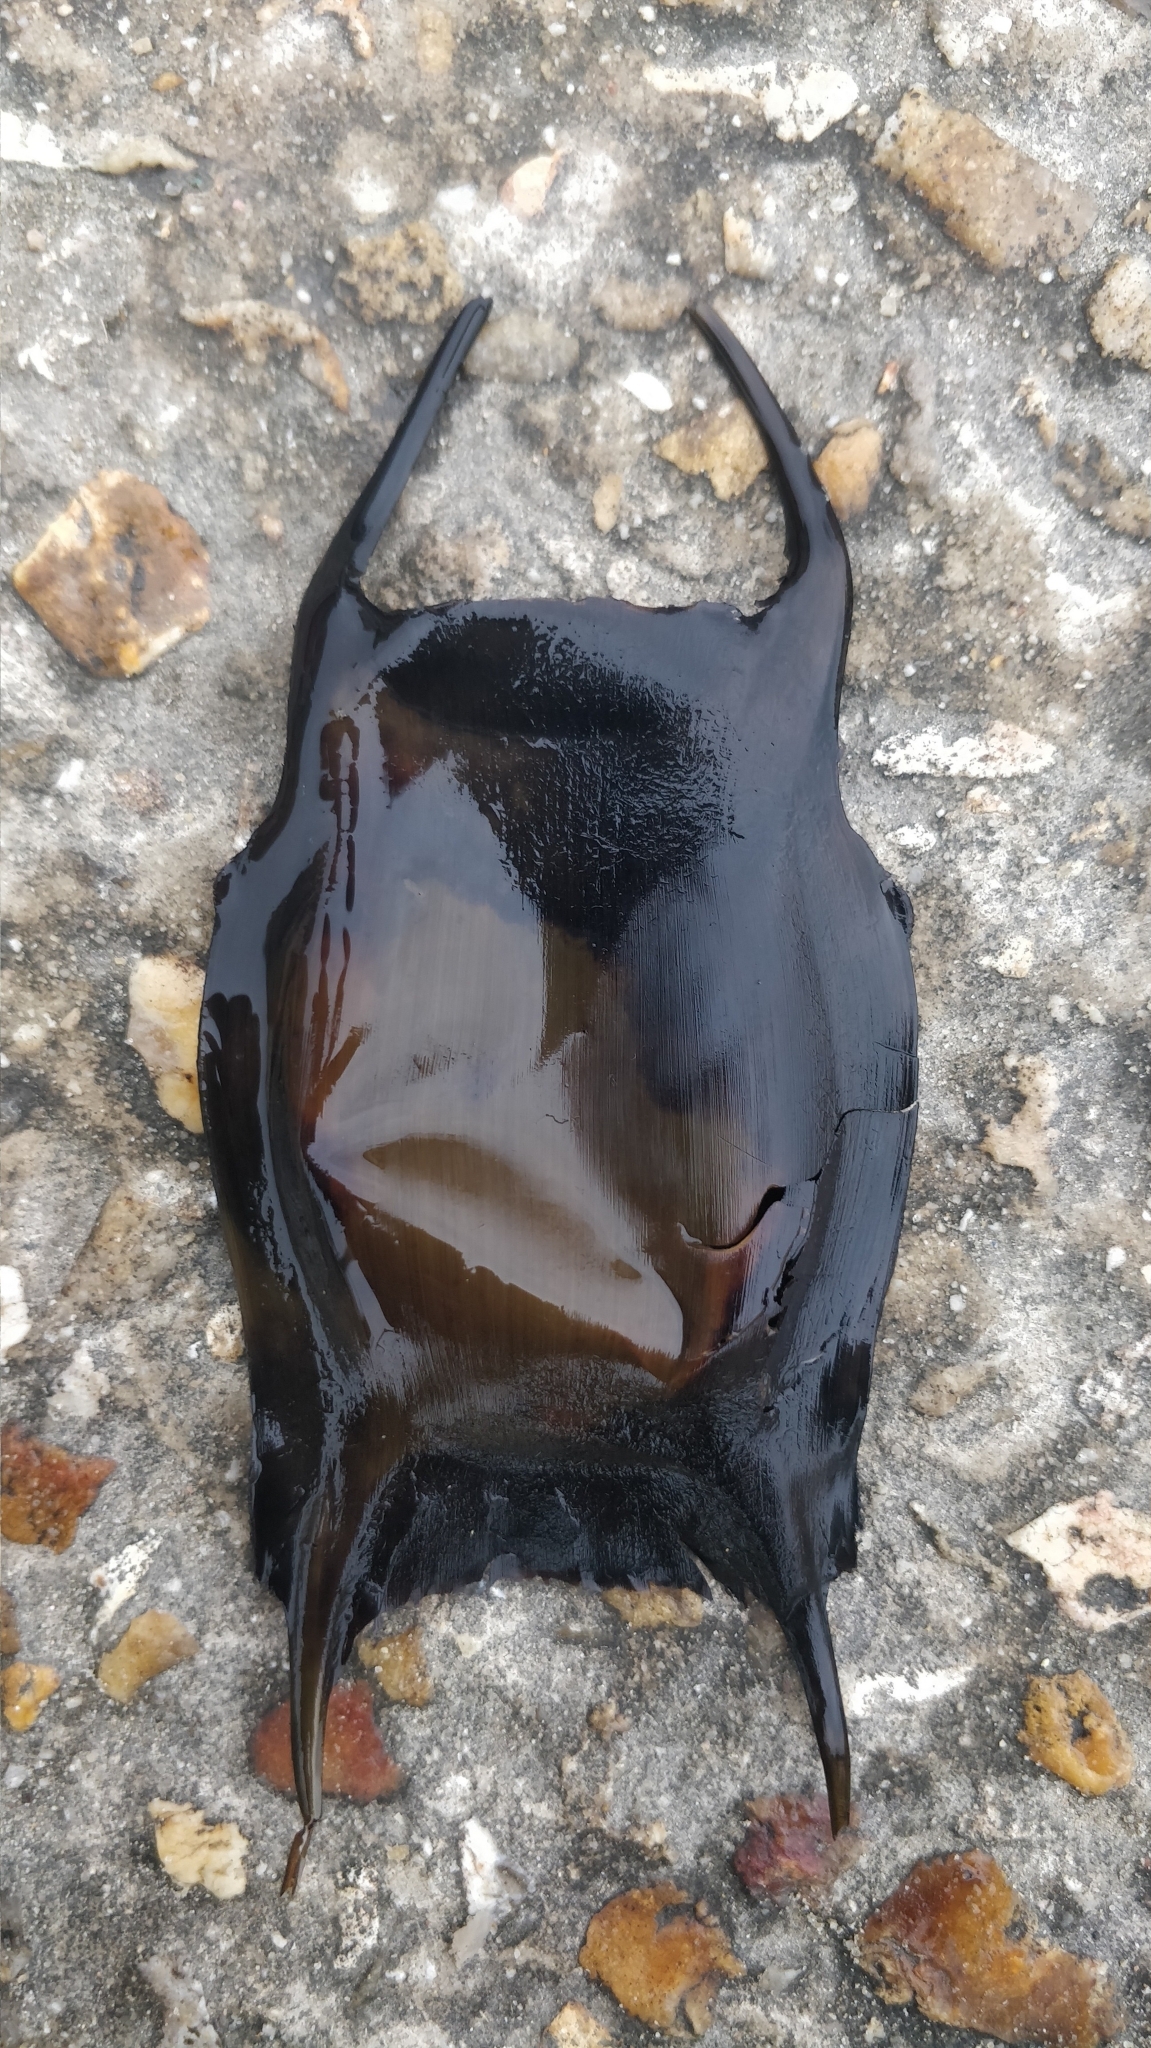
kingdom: Animalia
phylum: Chordata
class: Elasmobranchii
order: Rajiformes
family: Rajidae
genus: Raja
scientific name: Raja clavata
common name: Thornback ray
